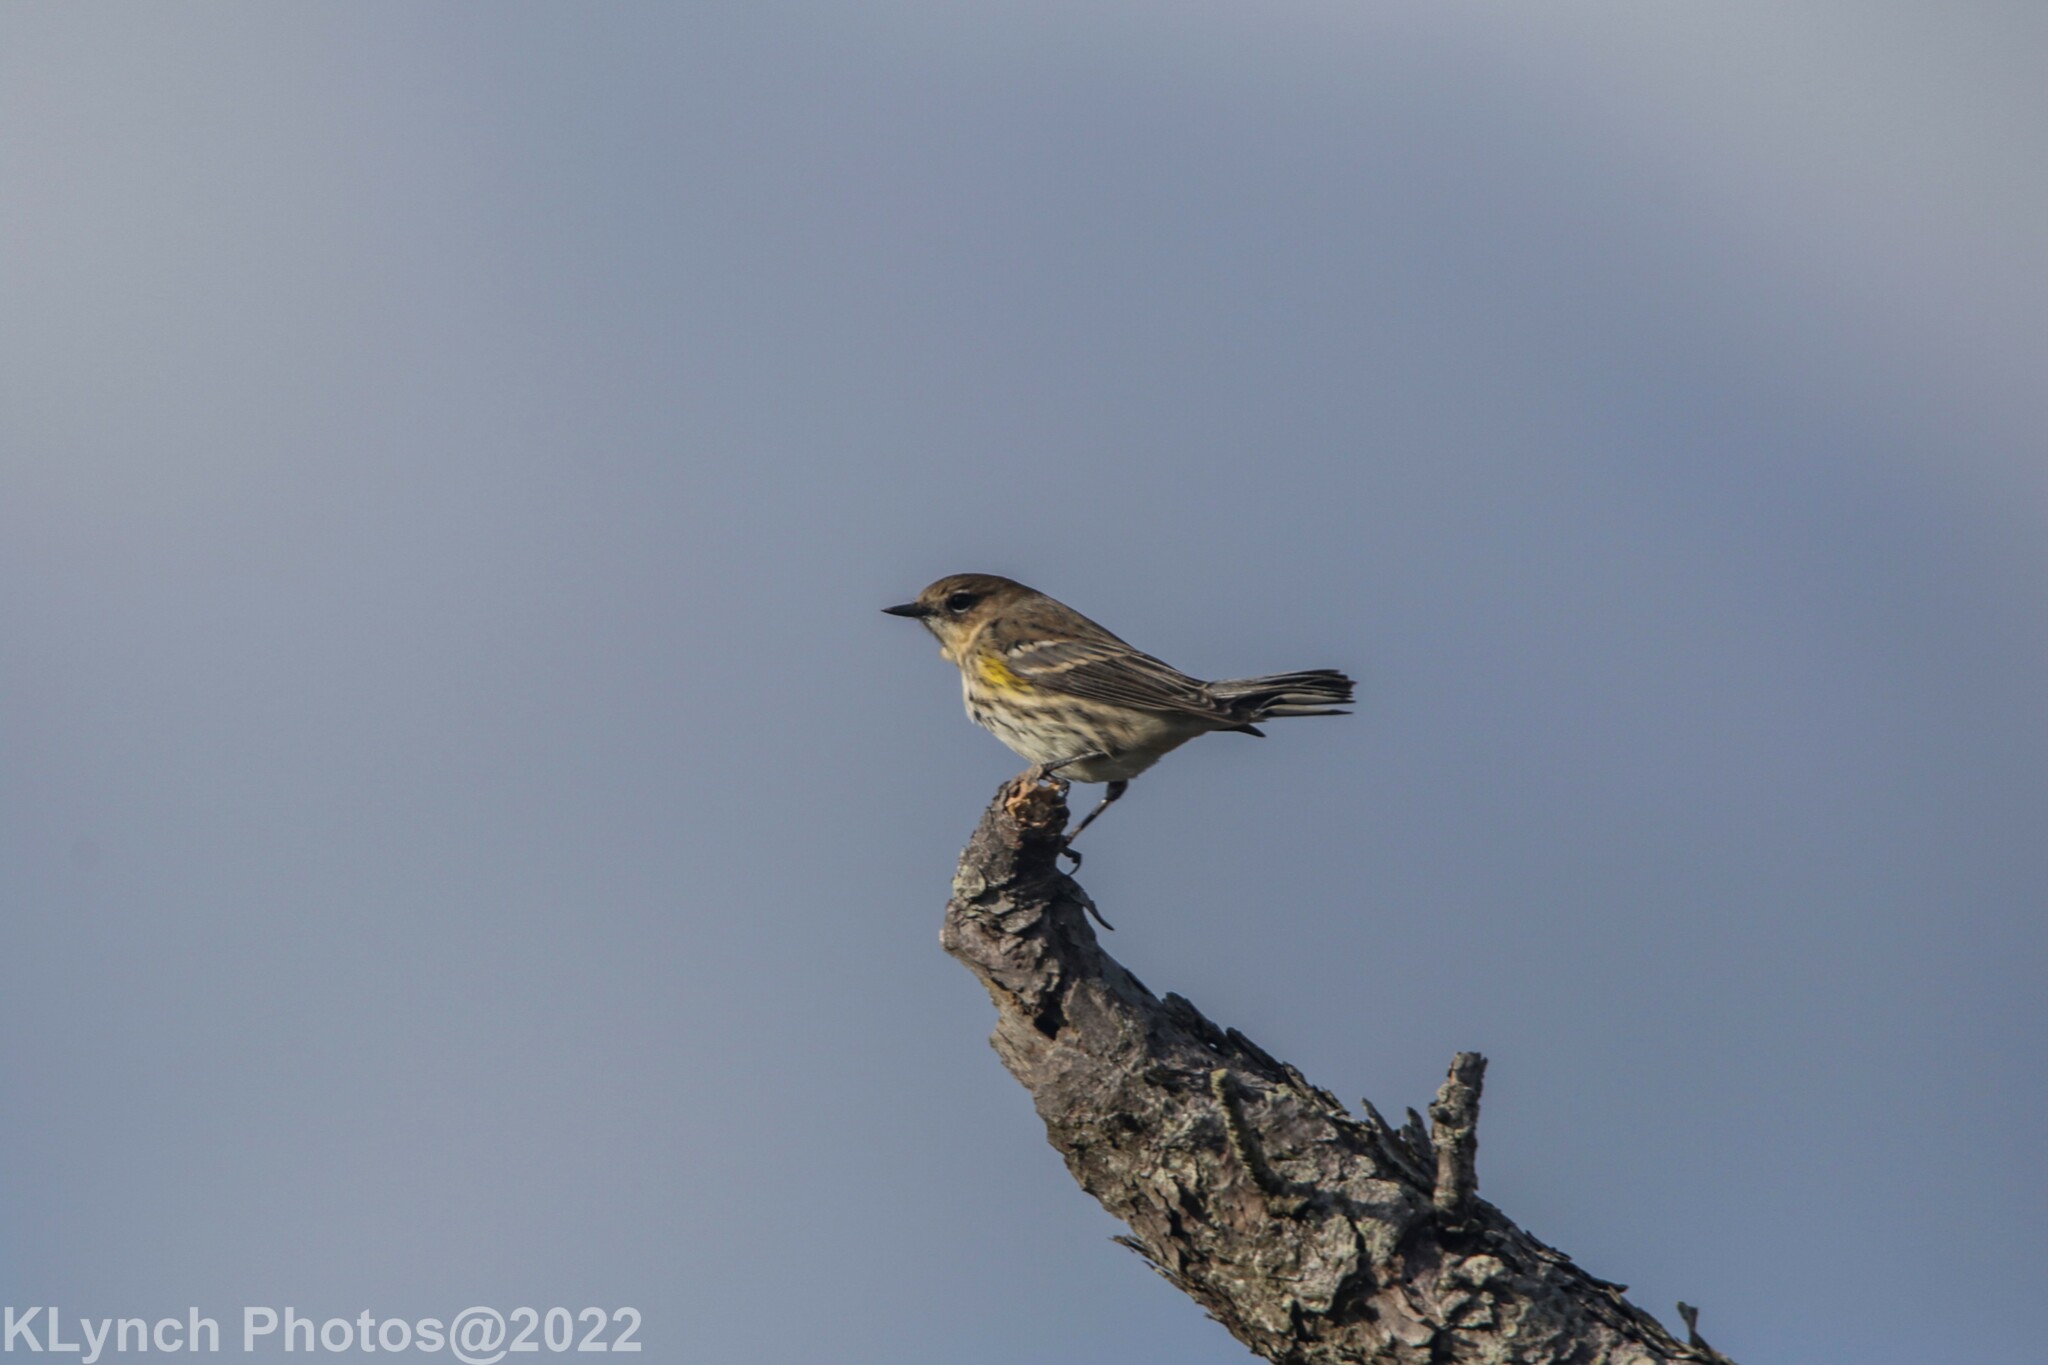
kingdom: Animalia
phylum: Chordata
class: Aves
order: Passeriformes
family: Parulidae
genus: Setophaga
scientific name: Setophaga coronata
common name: Myrtle warbler
